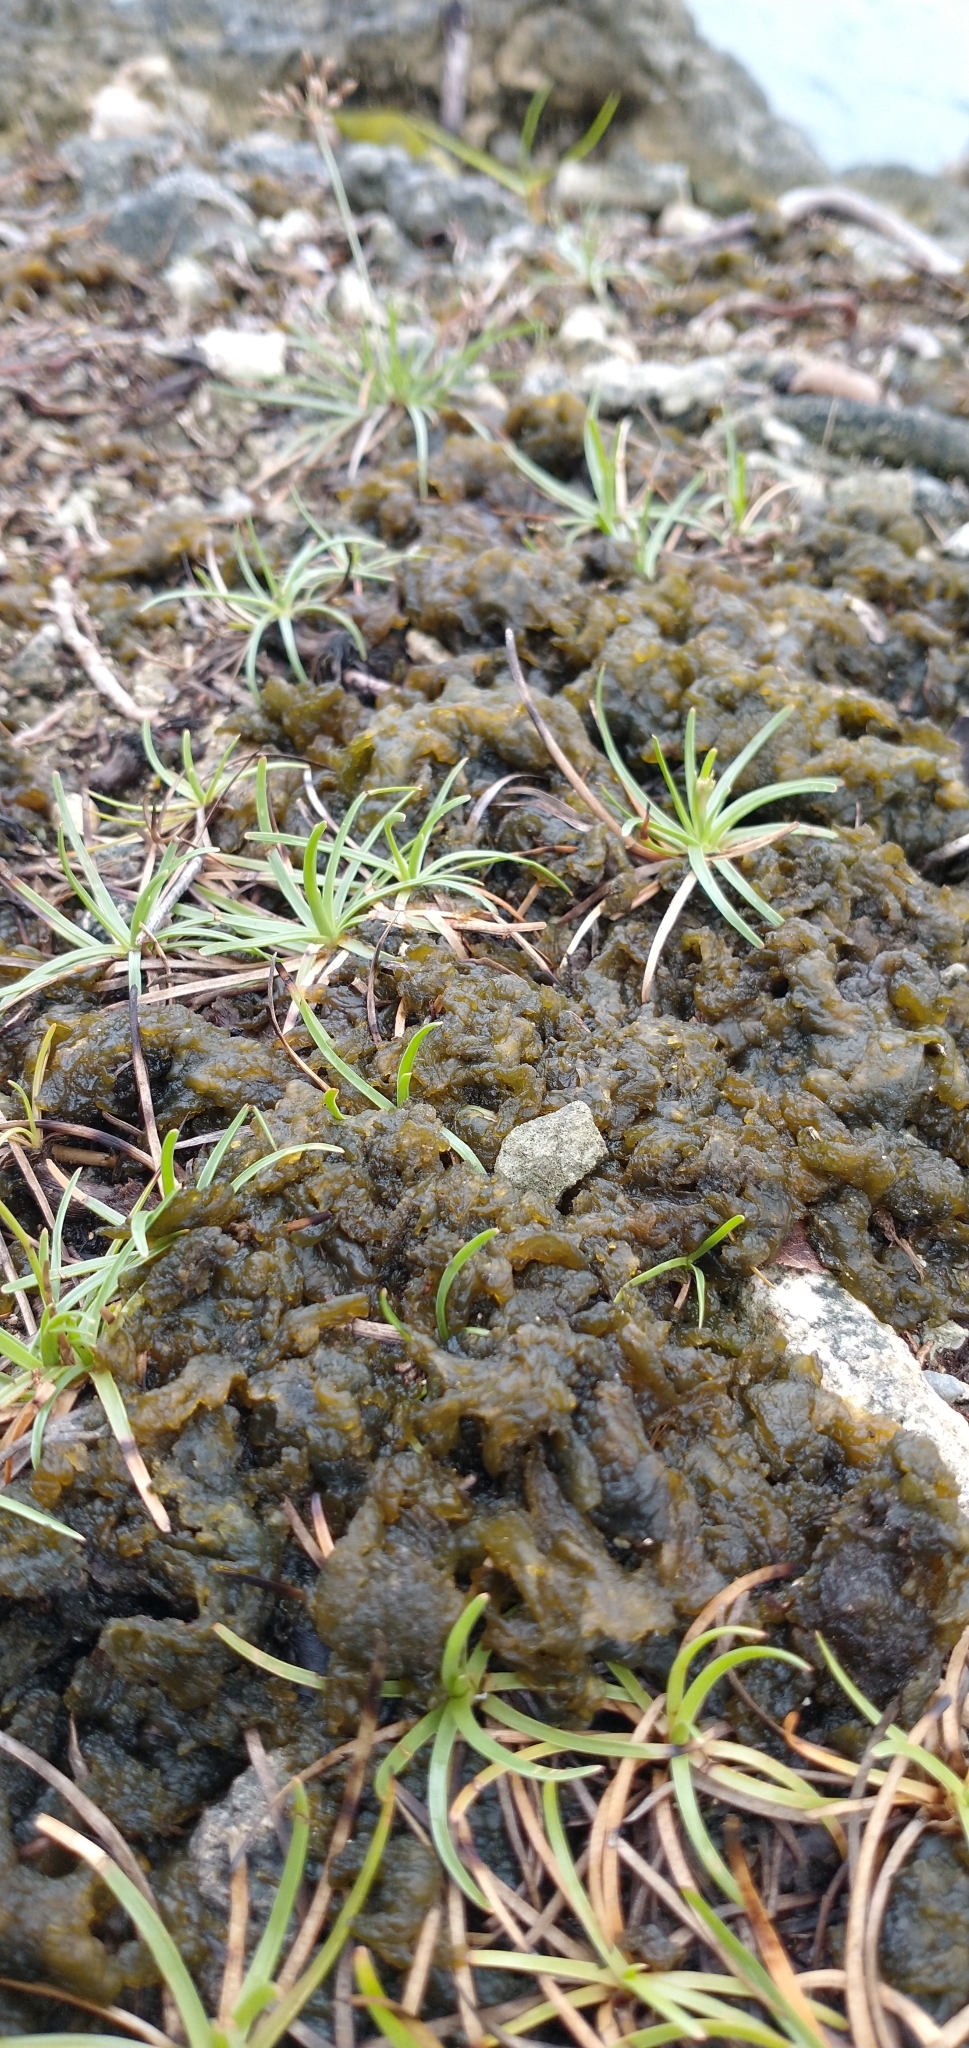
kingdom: Bacteria
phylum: Cyanobacteria
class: Cyanobacteriia
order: Cyanobacteriales
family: Nostocaceae
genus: Nostoc
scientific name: Nostoc commune
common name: Star jelly
